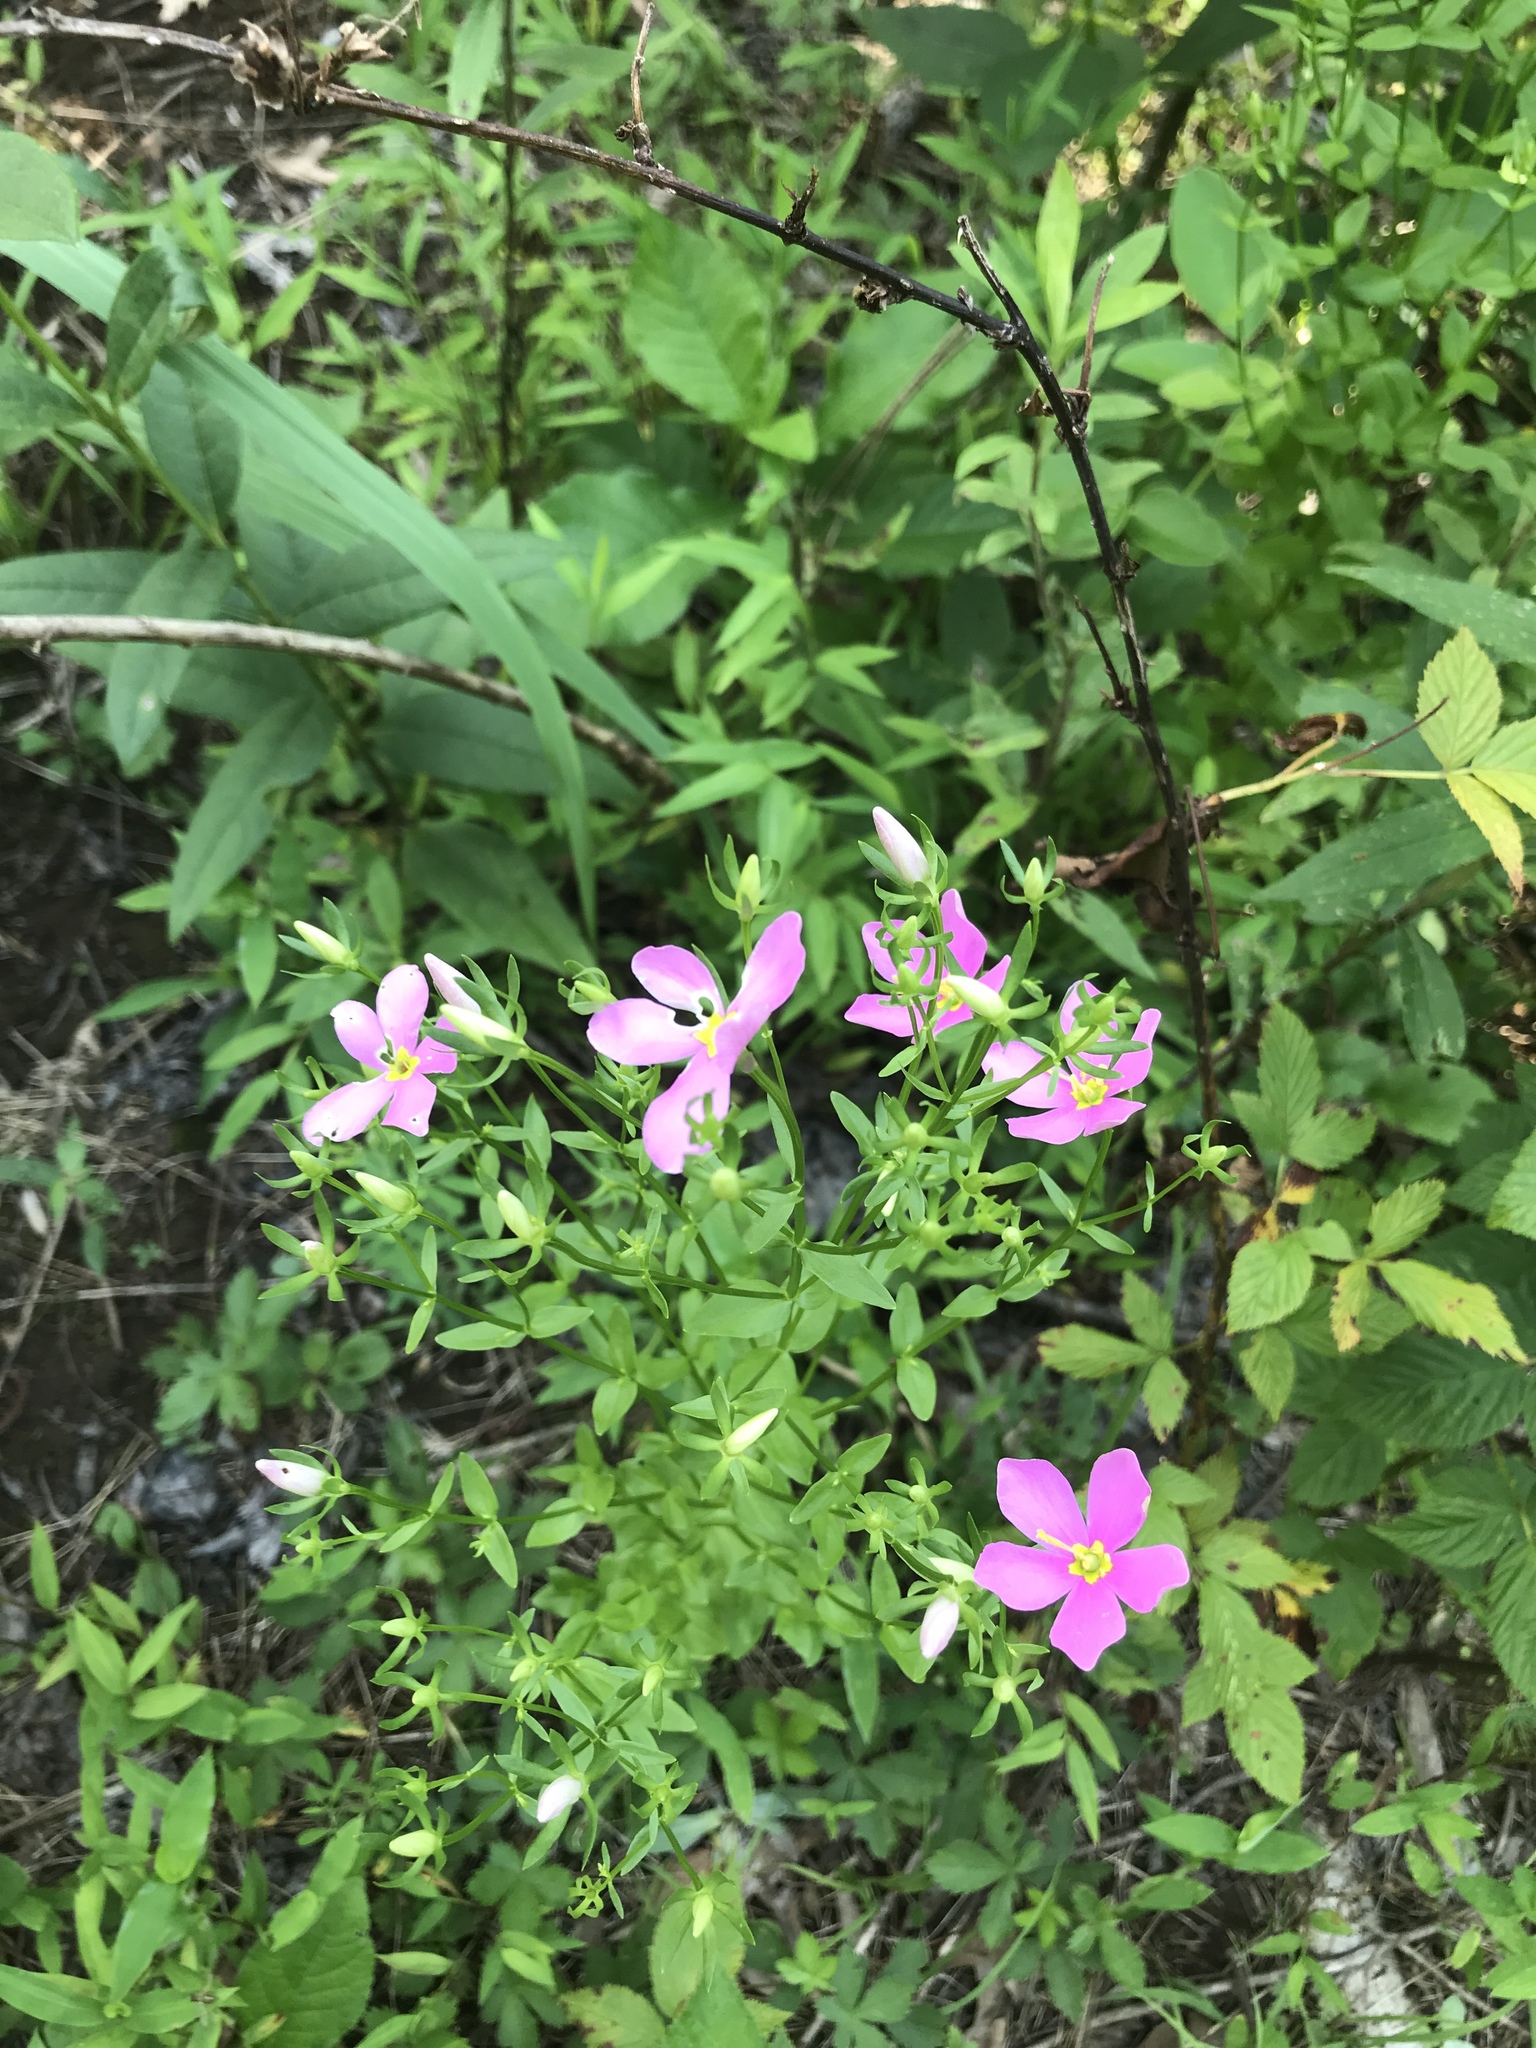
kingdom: Plantae
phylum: Tracheophyta
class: Magnoliopsida
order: Gentianales
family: Gentianaceae
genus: Sabatia
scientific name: Sabatia angularis
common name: Rose-pink
